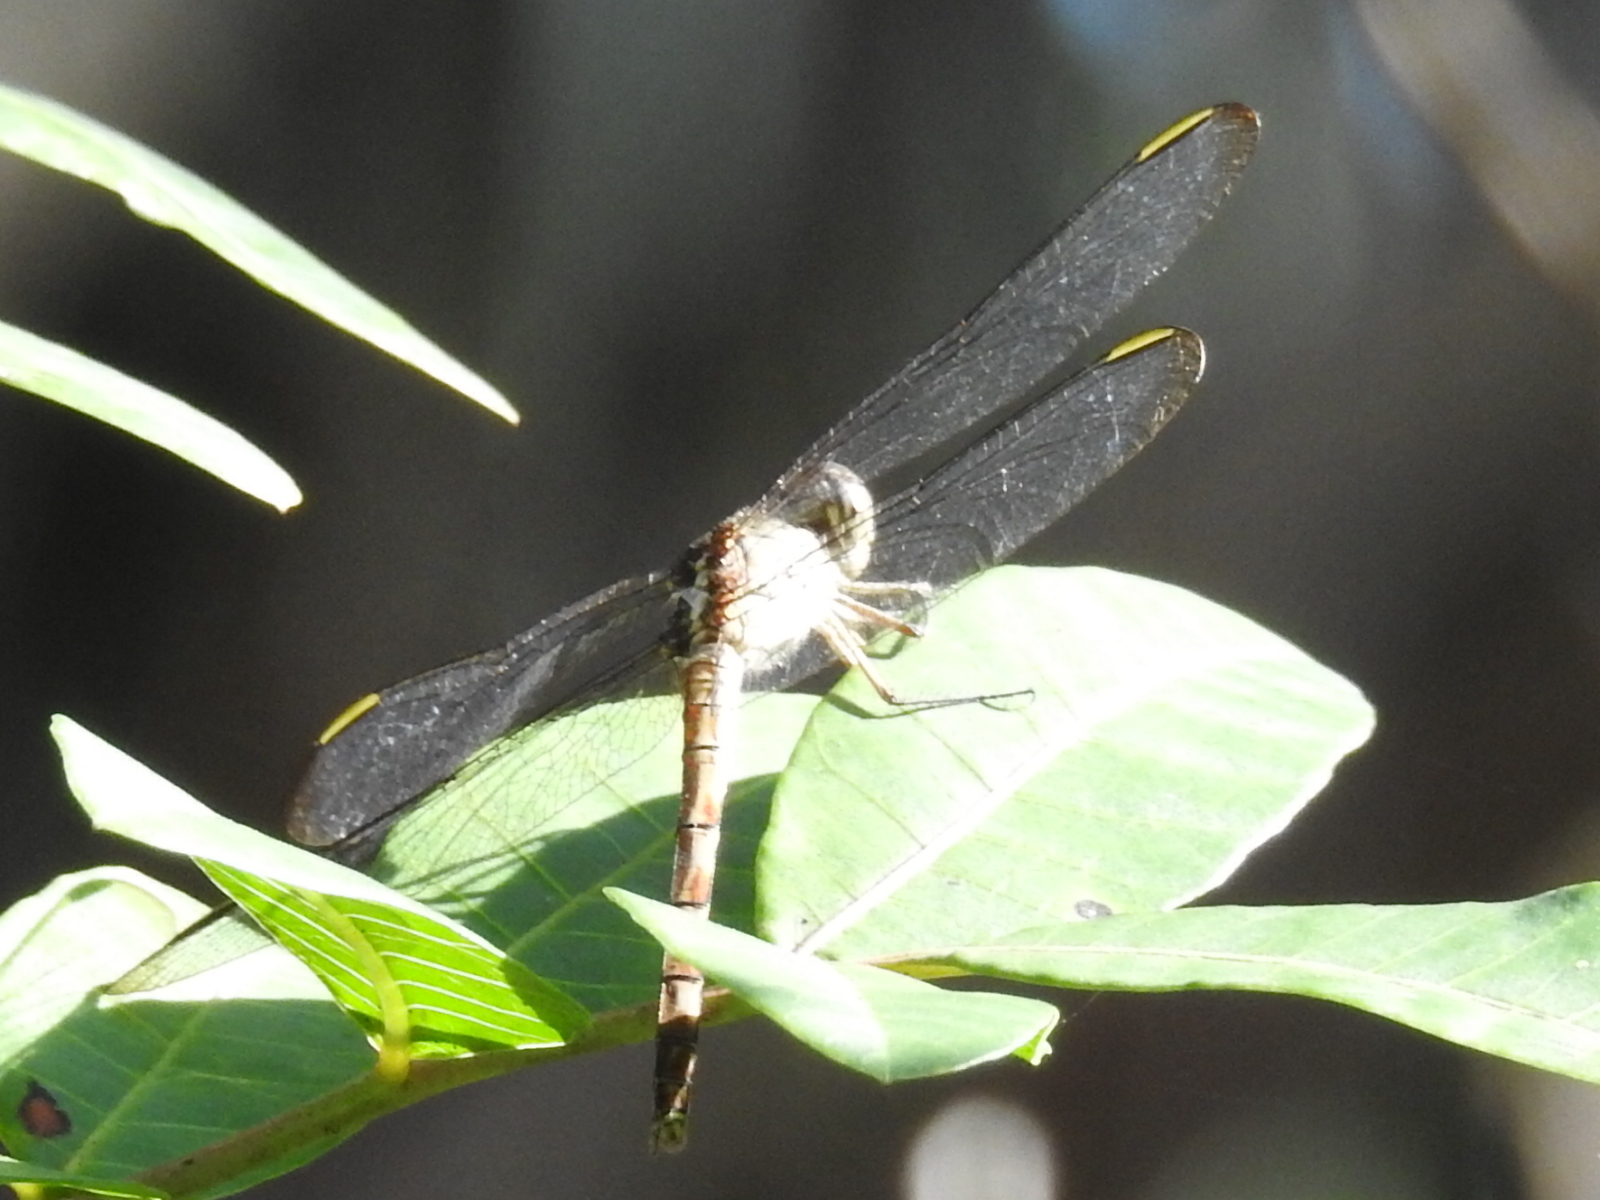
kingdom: Animalia
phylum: Arthropoda
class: Insecta
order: Odonata
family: Libellulidae
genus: Erythrodiplax
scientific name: Erythrodiplax umbrata
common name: Band-winged dragonlet
